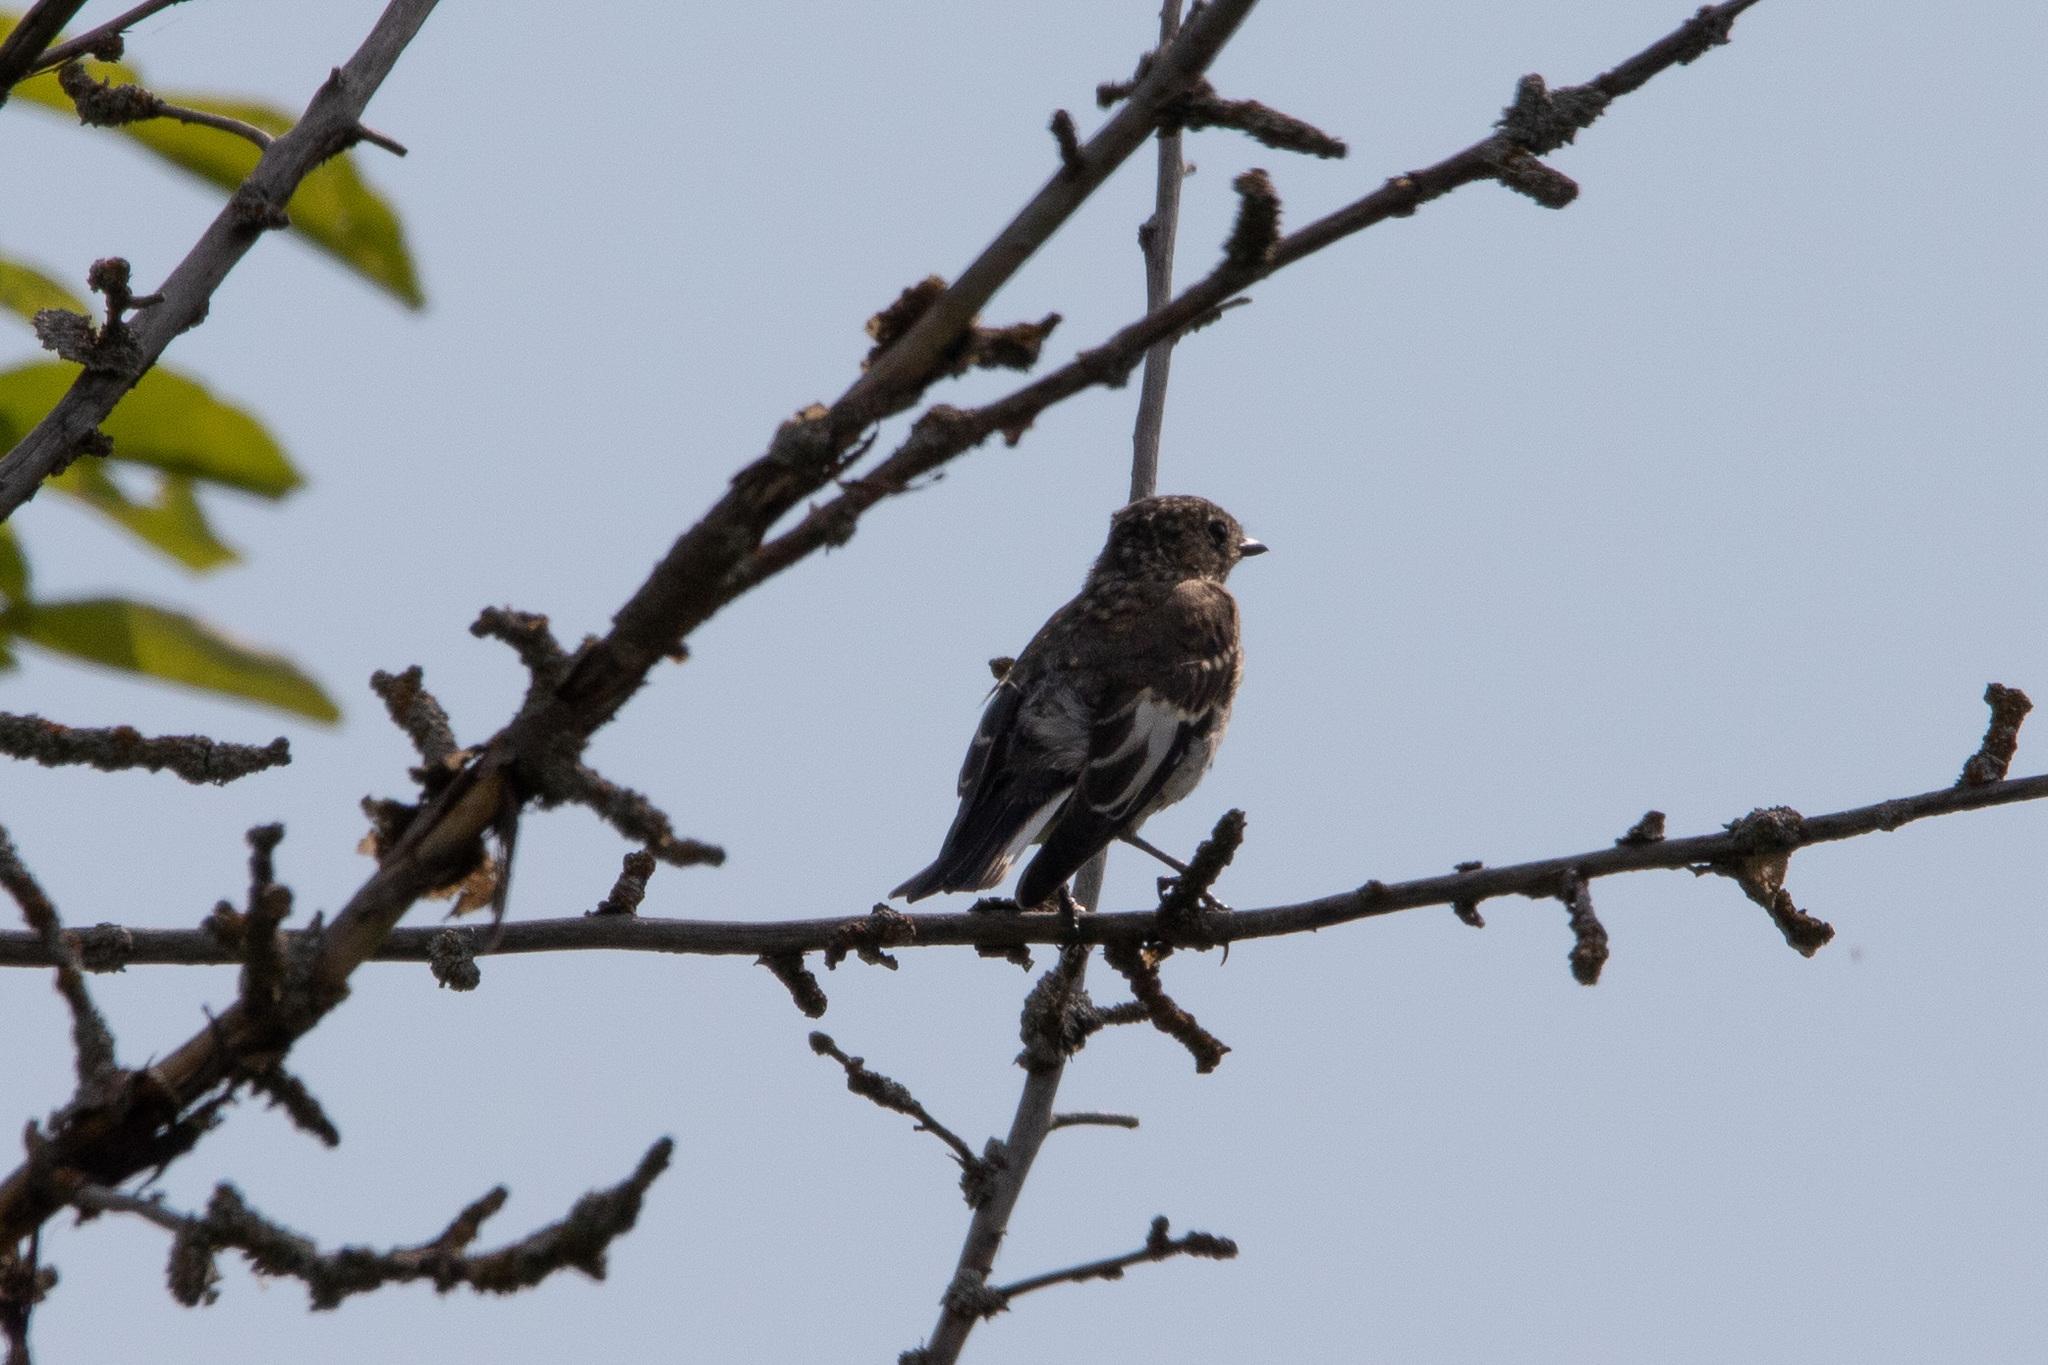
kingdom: Animalia
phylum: Chordata
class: Aves
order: Passeriformes
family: Muscicapidae
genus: Ficedula
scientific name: Ficedula hypoleuca
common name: European pied flycatcher
